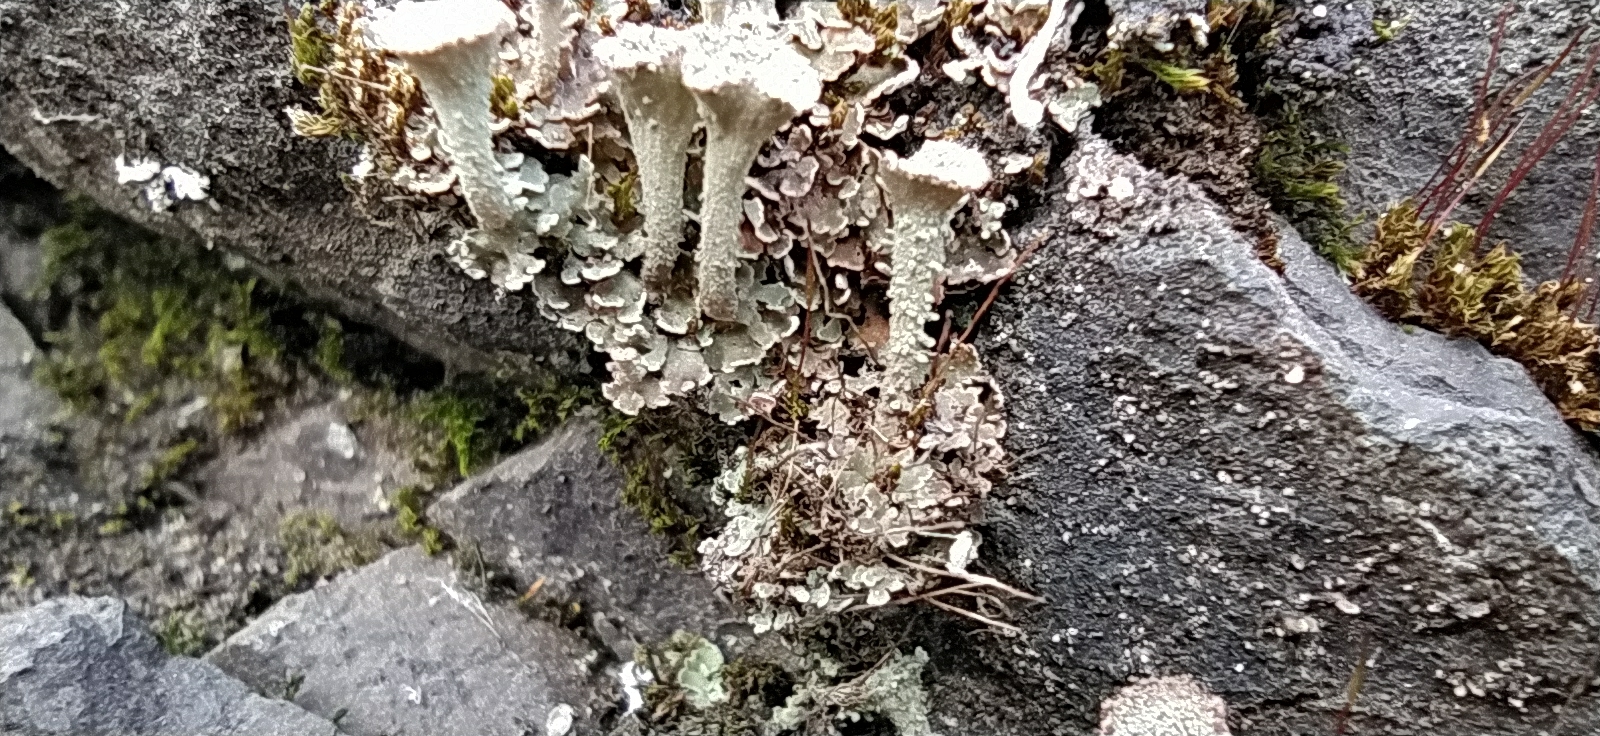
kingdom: Fungi
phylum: Ascomycota
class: Lecanoromycetes
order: Lecanorales
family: Cladoniaceae
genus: Cladonia
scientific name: Cladonia pyxidata
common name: Pebbled pixie cup
